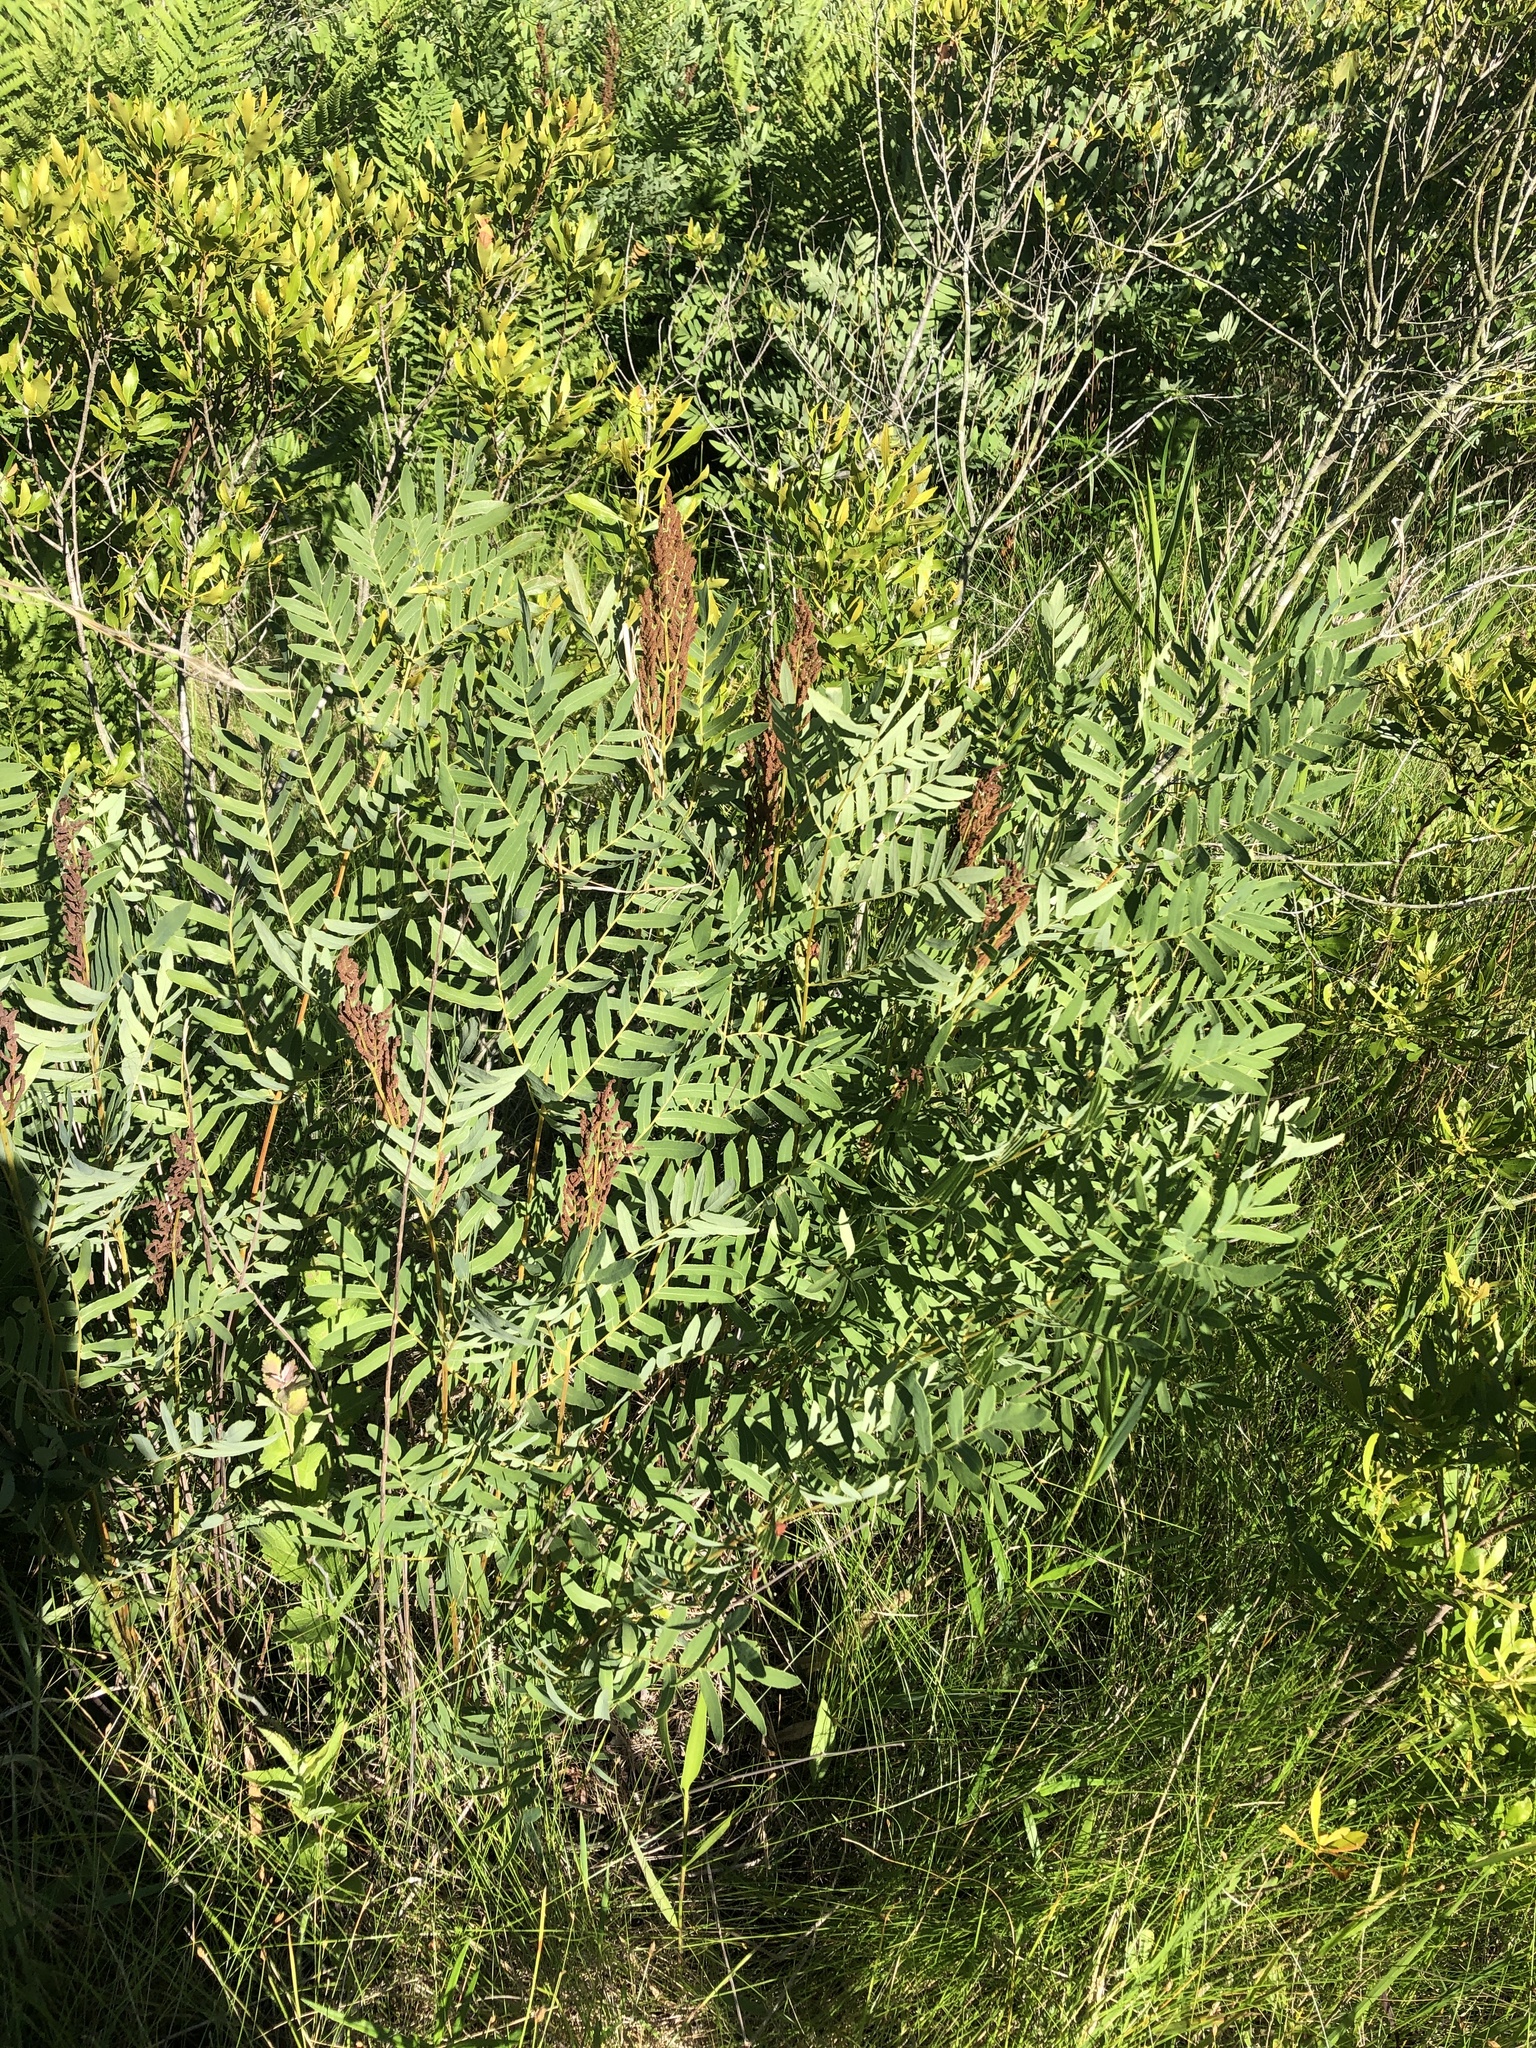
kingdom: Plantae
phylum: Tracheophyta
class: Polypodiopsida
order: Osmundales
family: Osmundaceae
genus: Osmunda
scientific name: Osmunda spectabilis
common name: American royal fern
